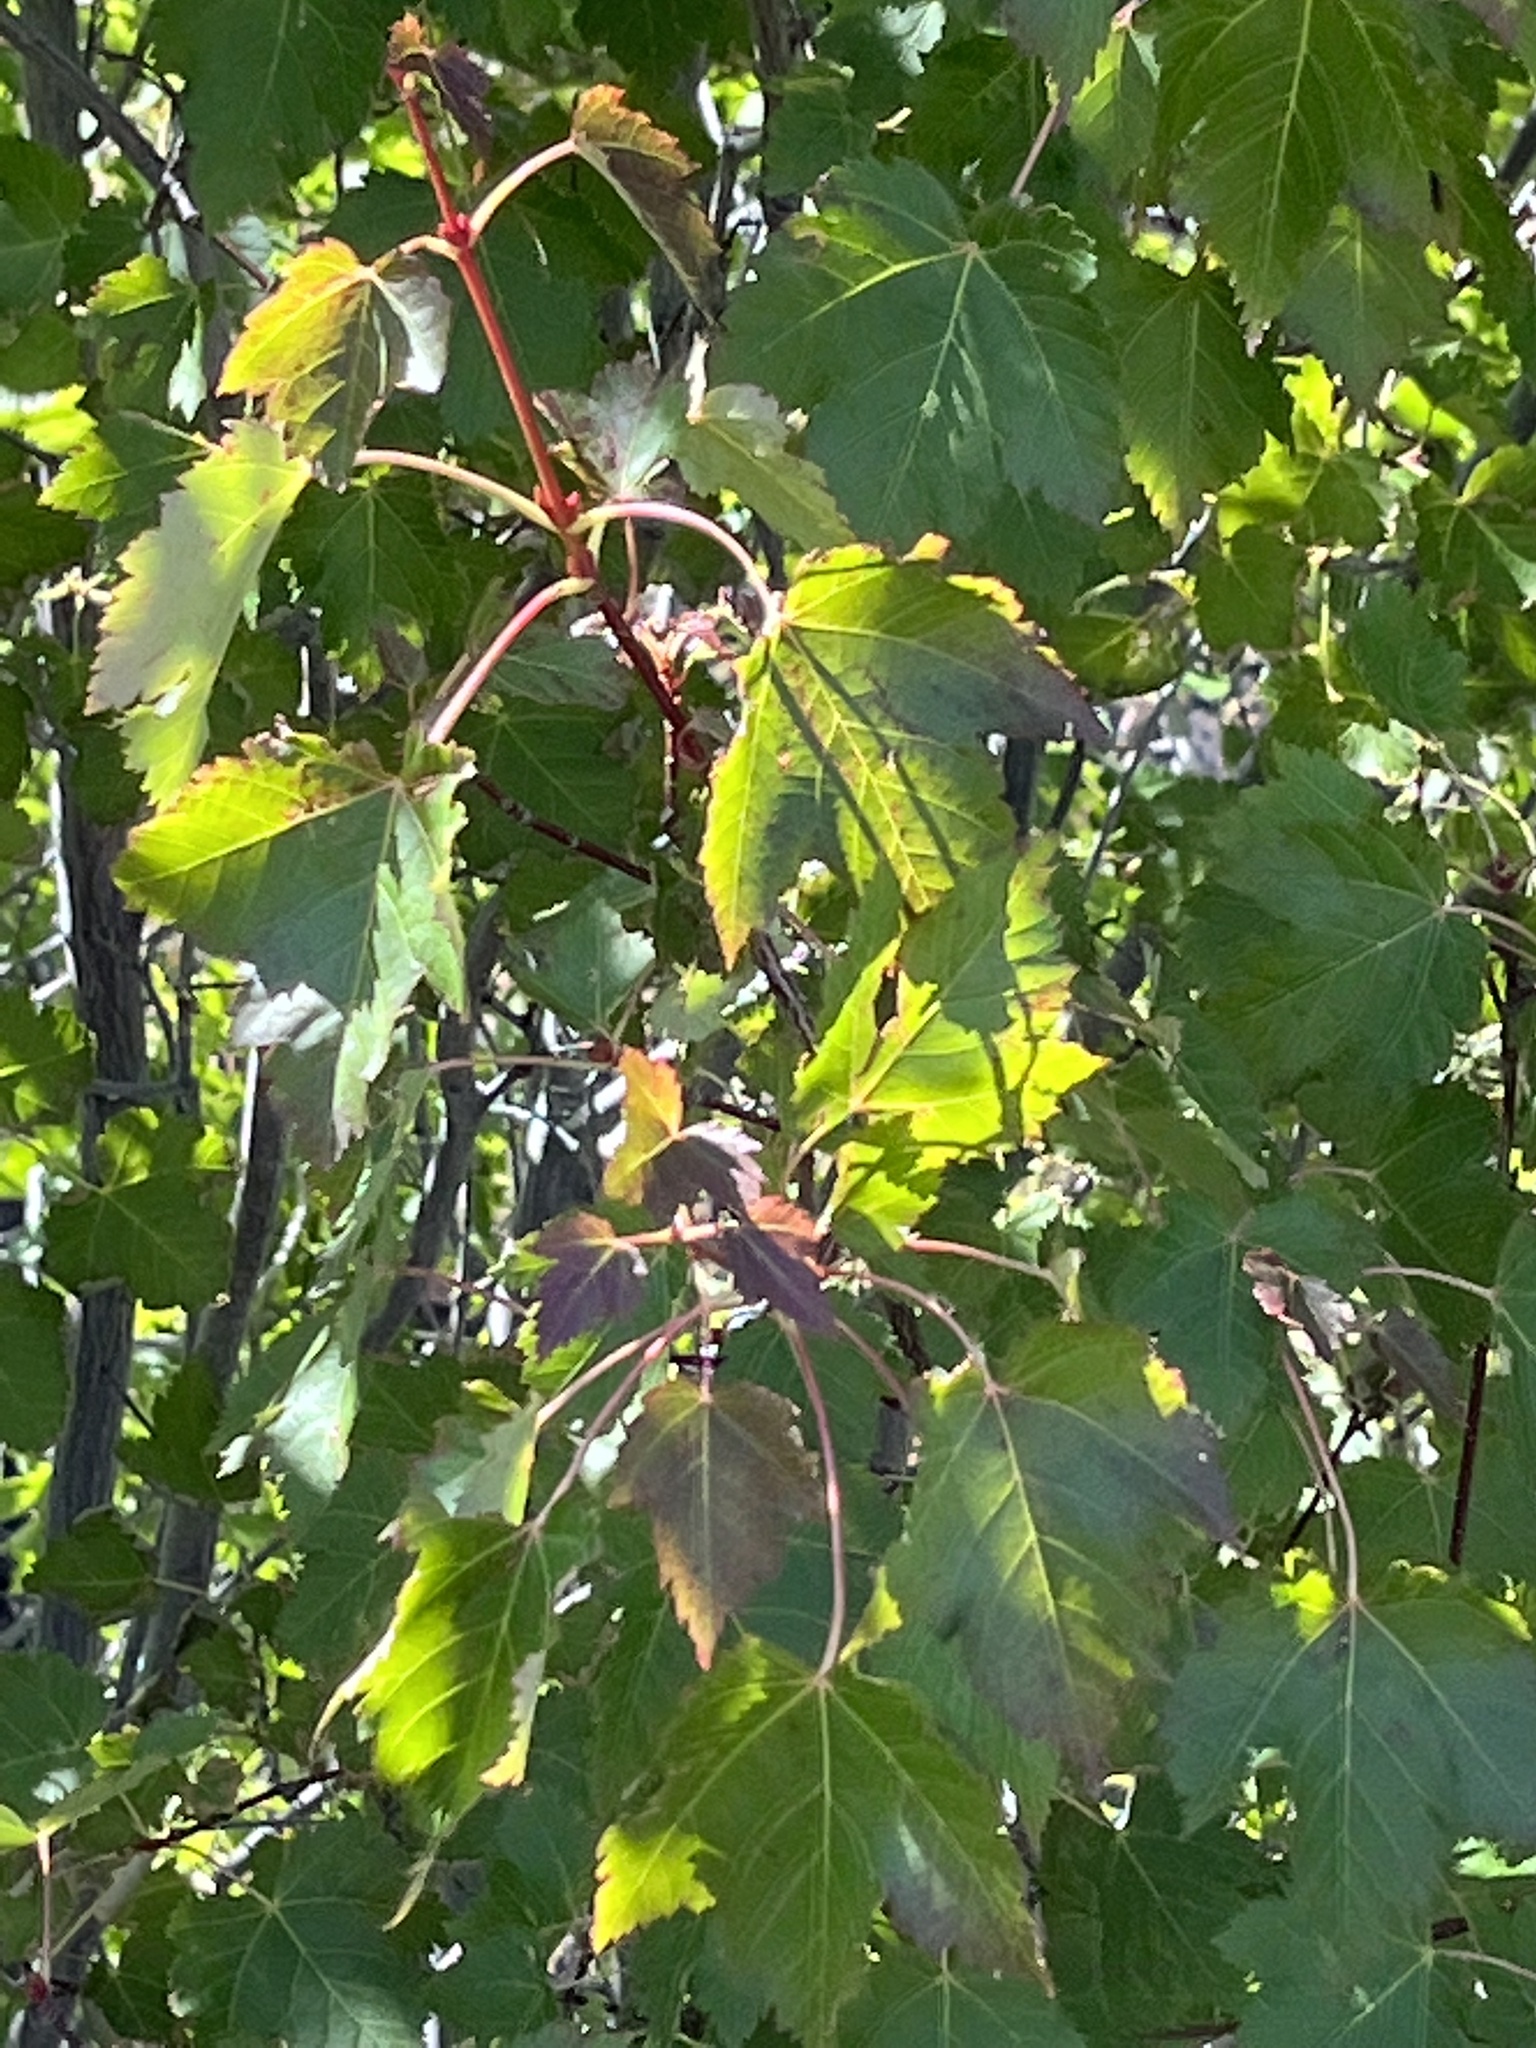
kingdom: Plantae
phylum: Tracheophyta
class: Magnoliopsida
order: Sapindales
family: Sapindaceae
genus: Acer
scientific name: Acer glabrum
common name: Rocky mountain maple
